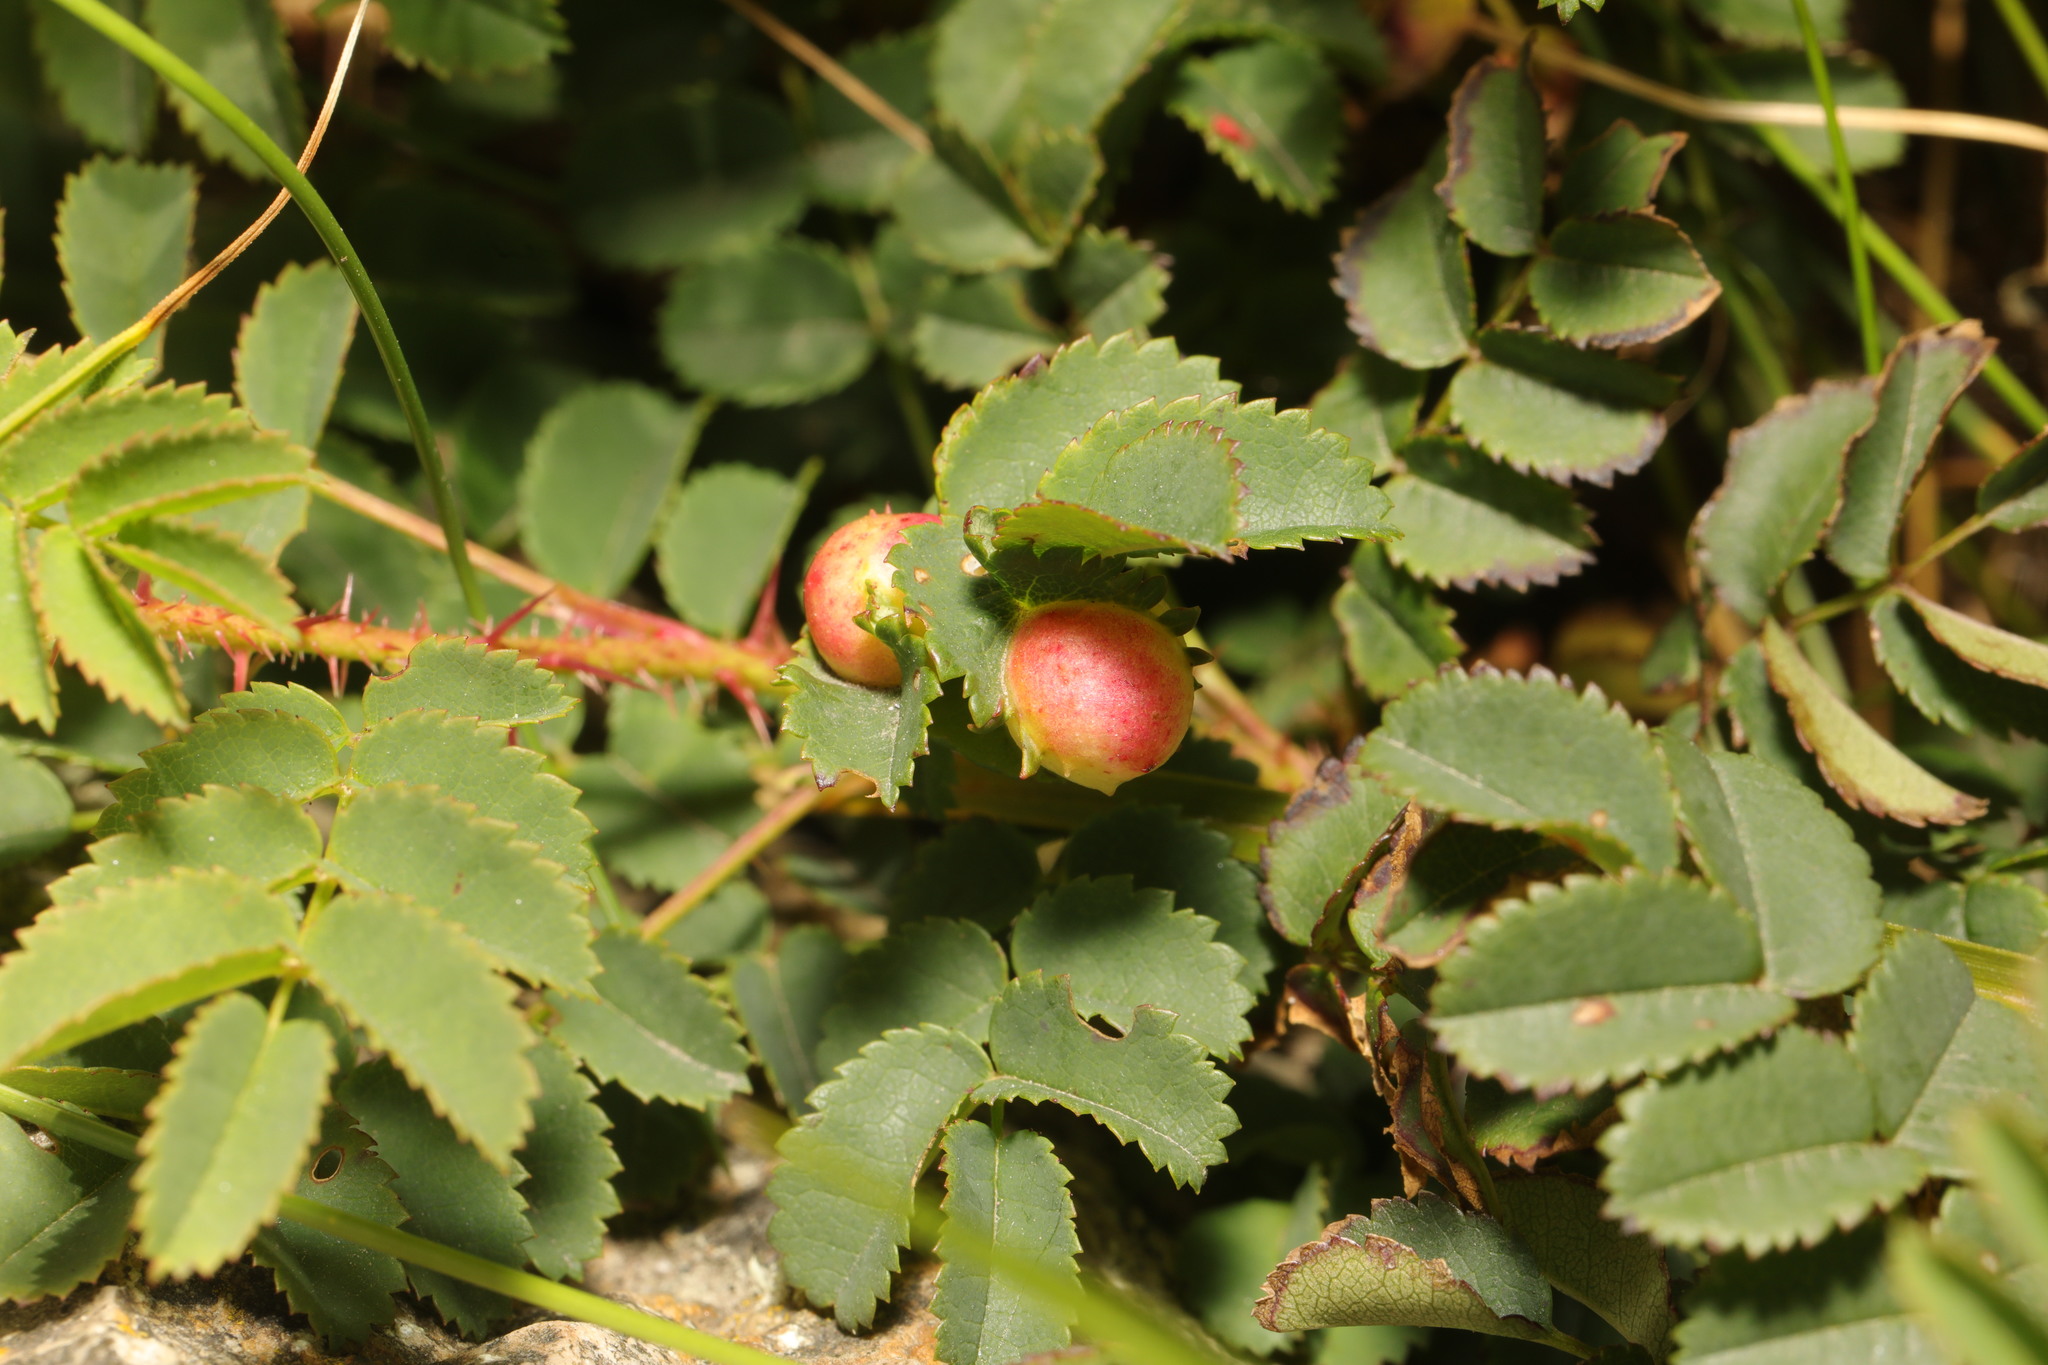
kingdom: Animalia
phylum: Arthropoda
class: Insecta
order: Hymenoptera
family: Cynipidae
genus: Diplolepis
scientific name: Diplolepis spinosissimae
